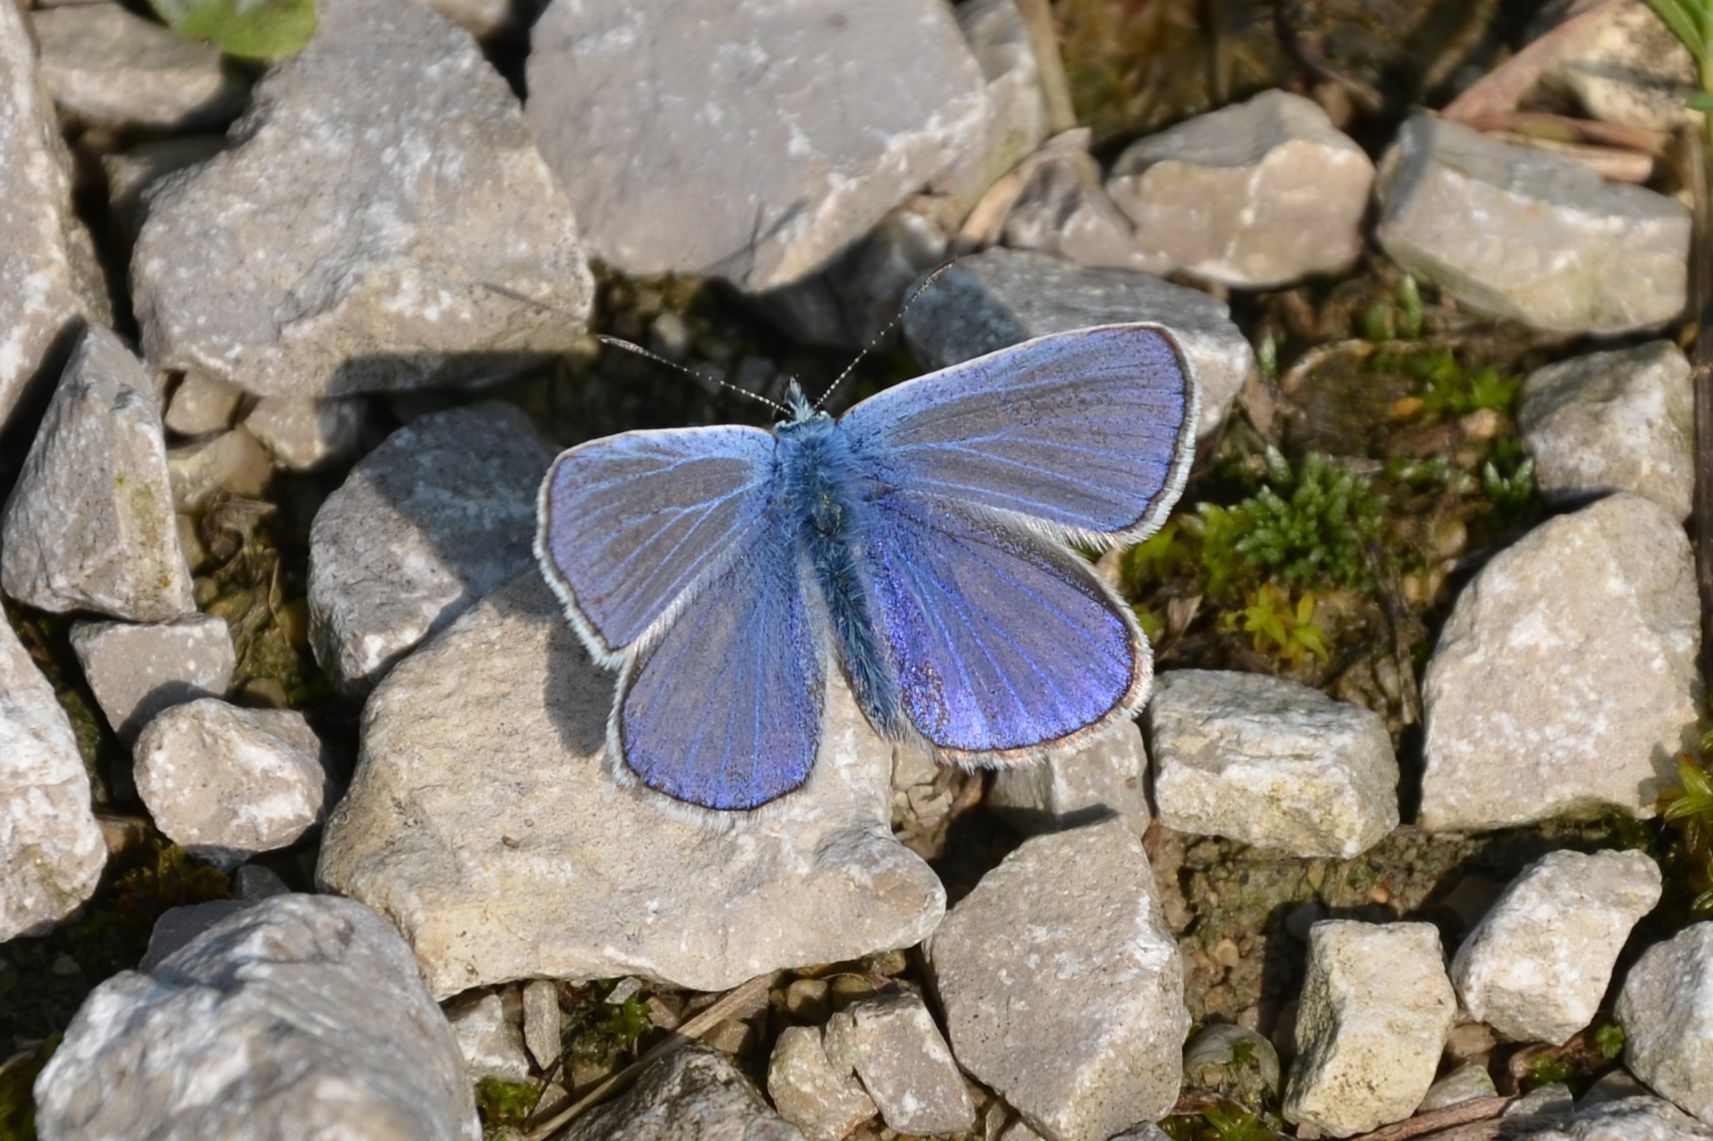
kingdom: Animalia
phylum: Arthropoda
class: Insecta
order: Lepidoptera
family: Lycaenidae
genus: Polyommatus
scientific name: Polyommatus icarus
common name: Common blue
